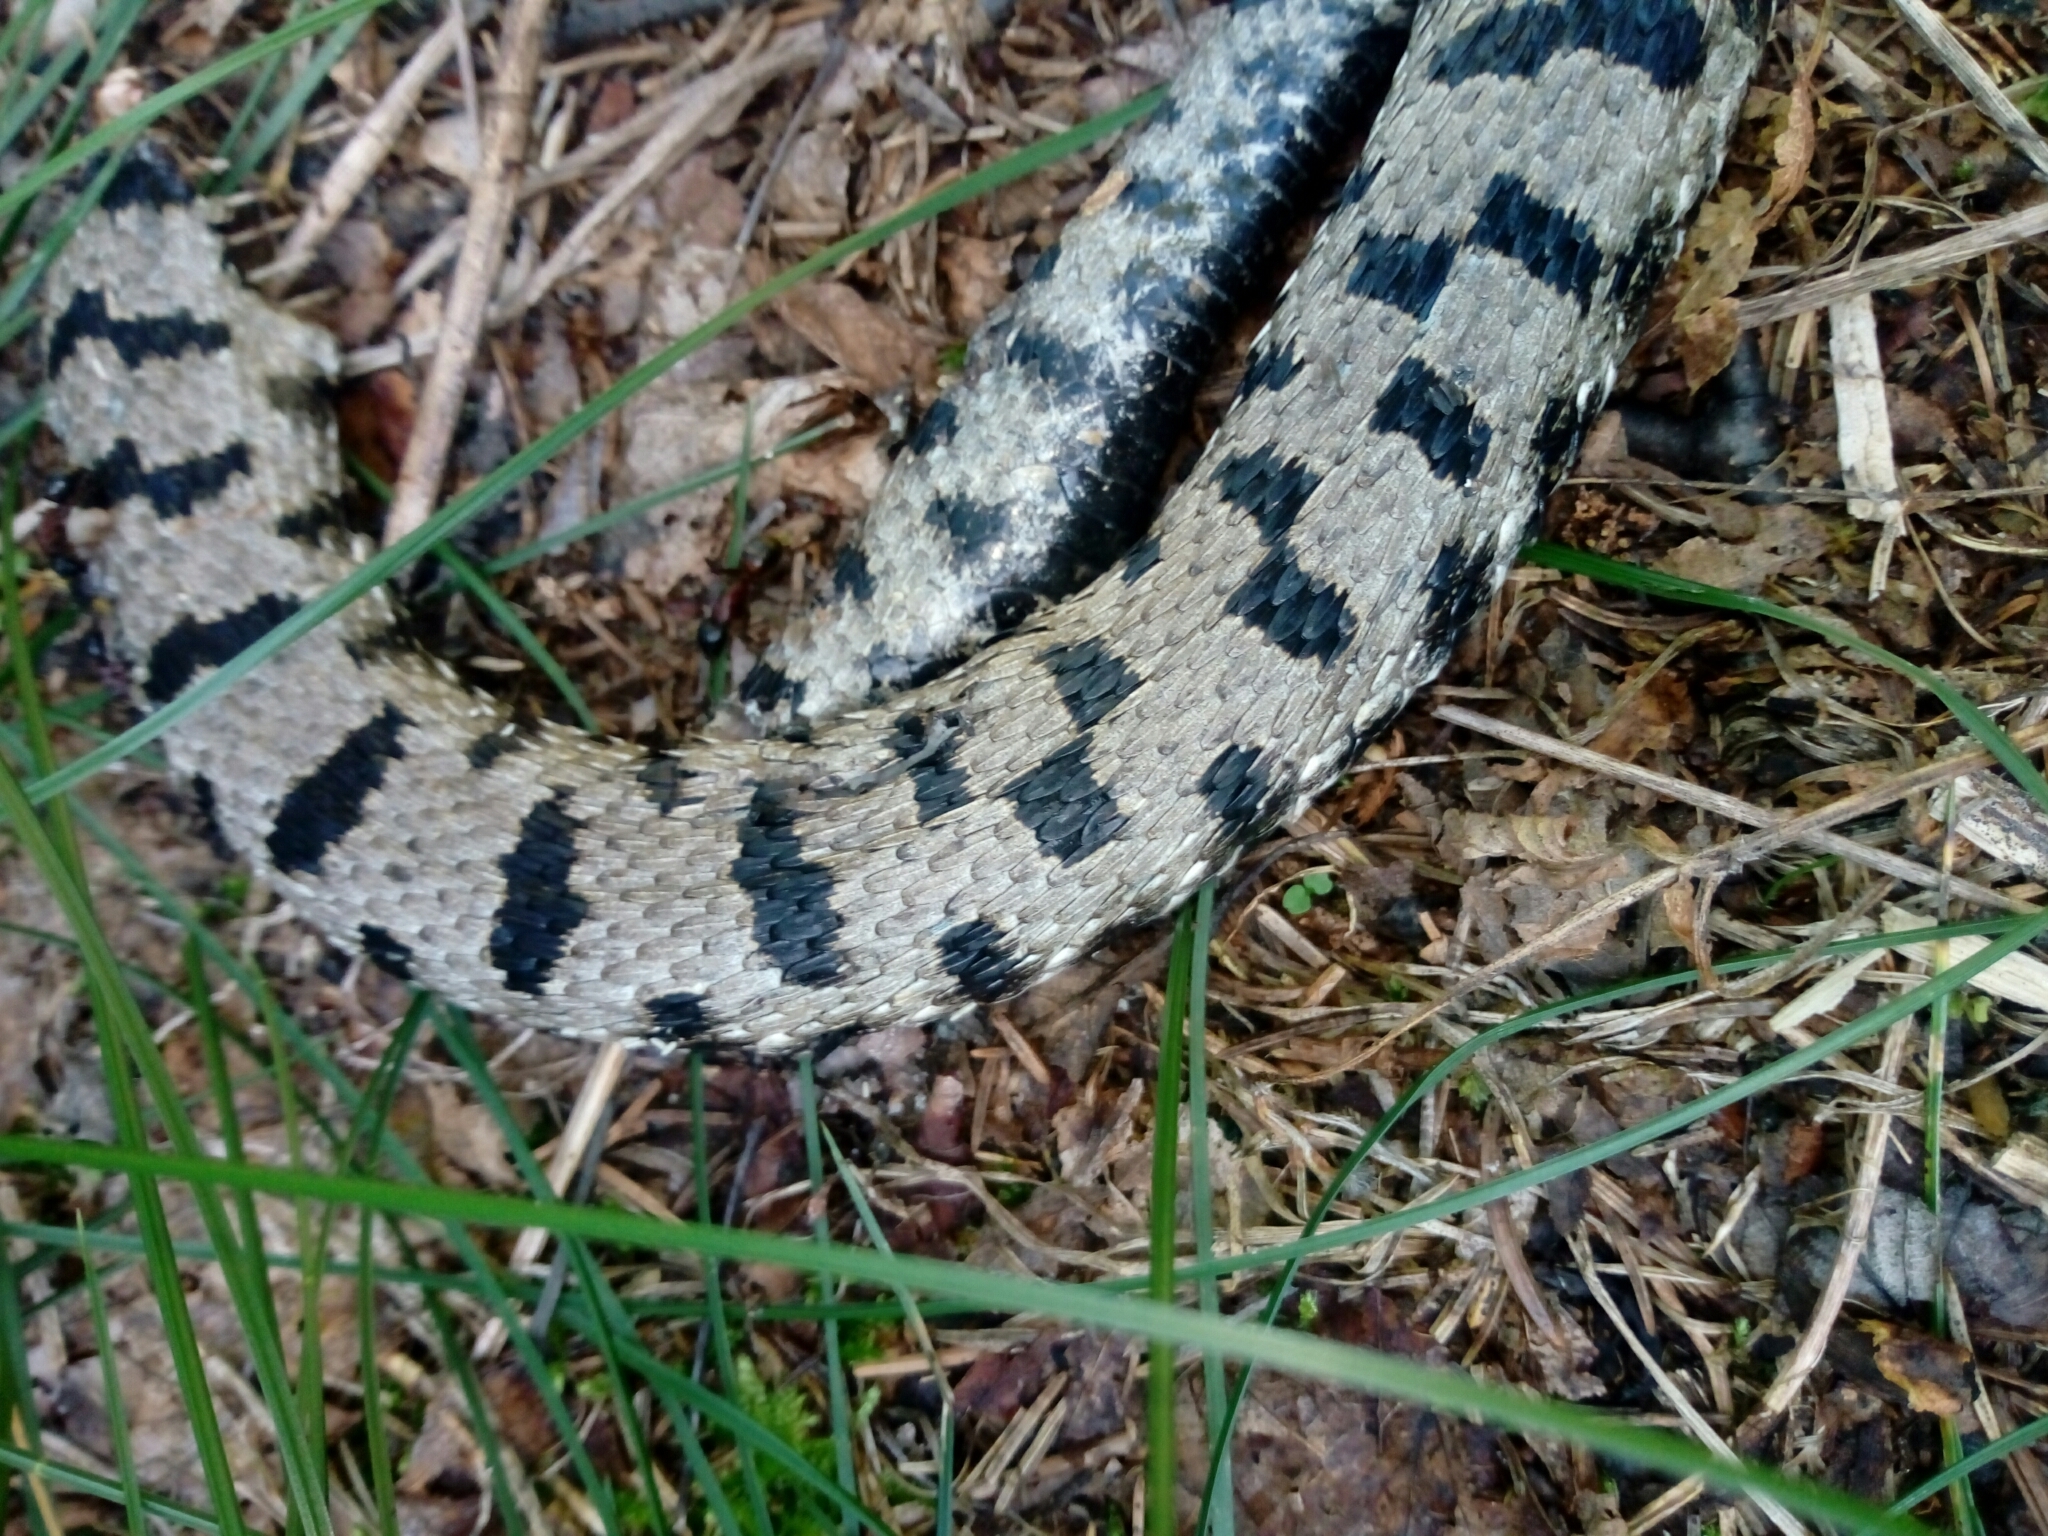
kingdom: Animalia
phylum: Chordata
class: Squamata
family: Viperidae
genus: Vipera
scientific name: Vipera aspis
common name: Asp viper
